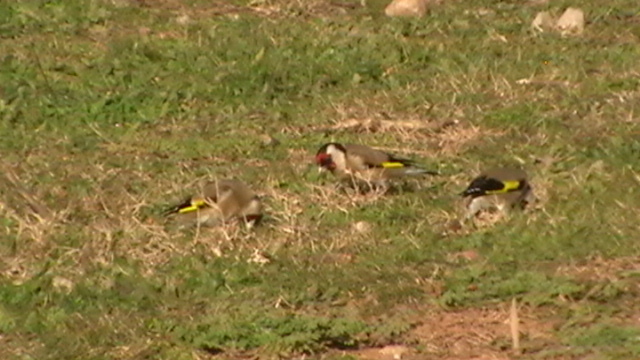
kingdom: Animalia
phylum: Chordata
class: Aves
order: Passeriformes
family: Fringillidae
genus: Carduelis
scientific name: Carduelis carduelis
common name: European goldfinch
